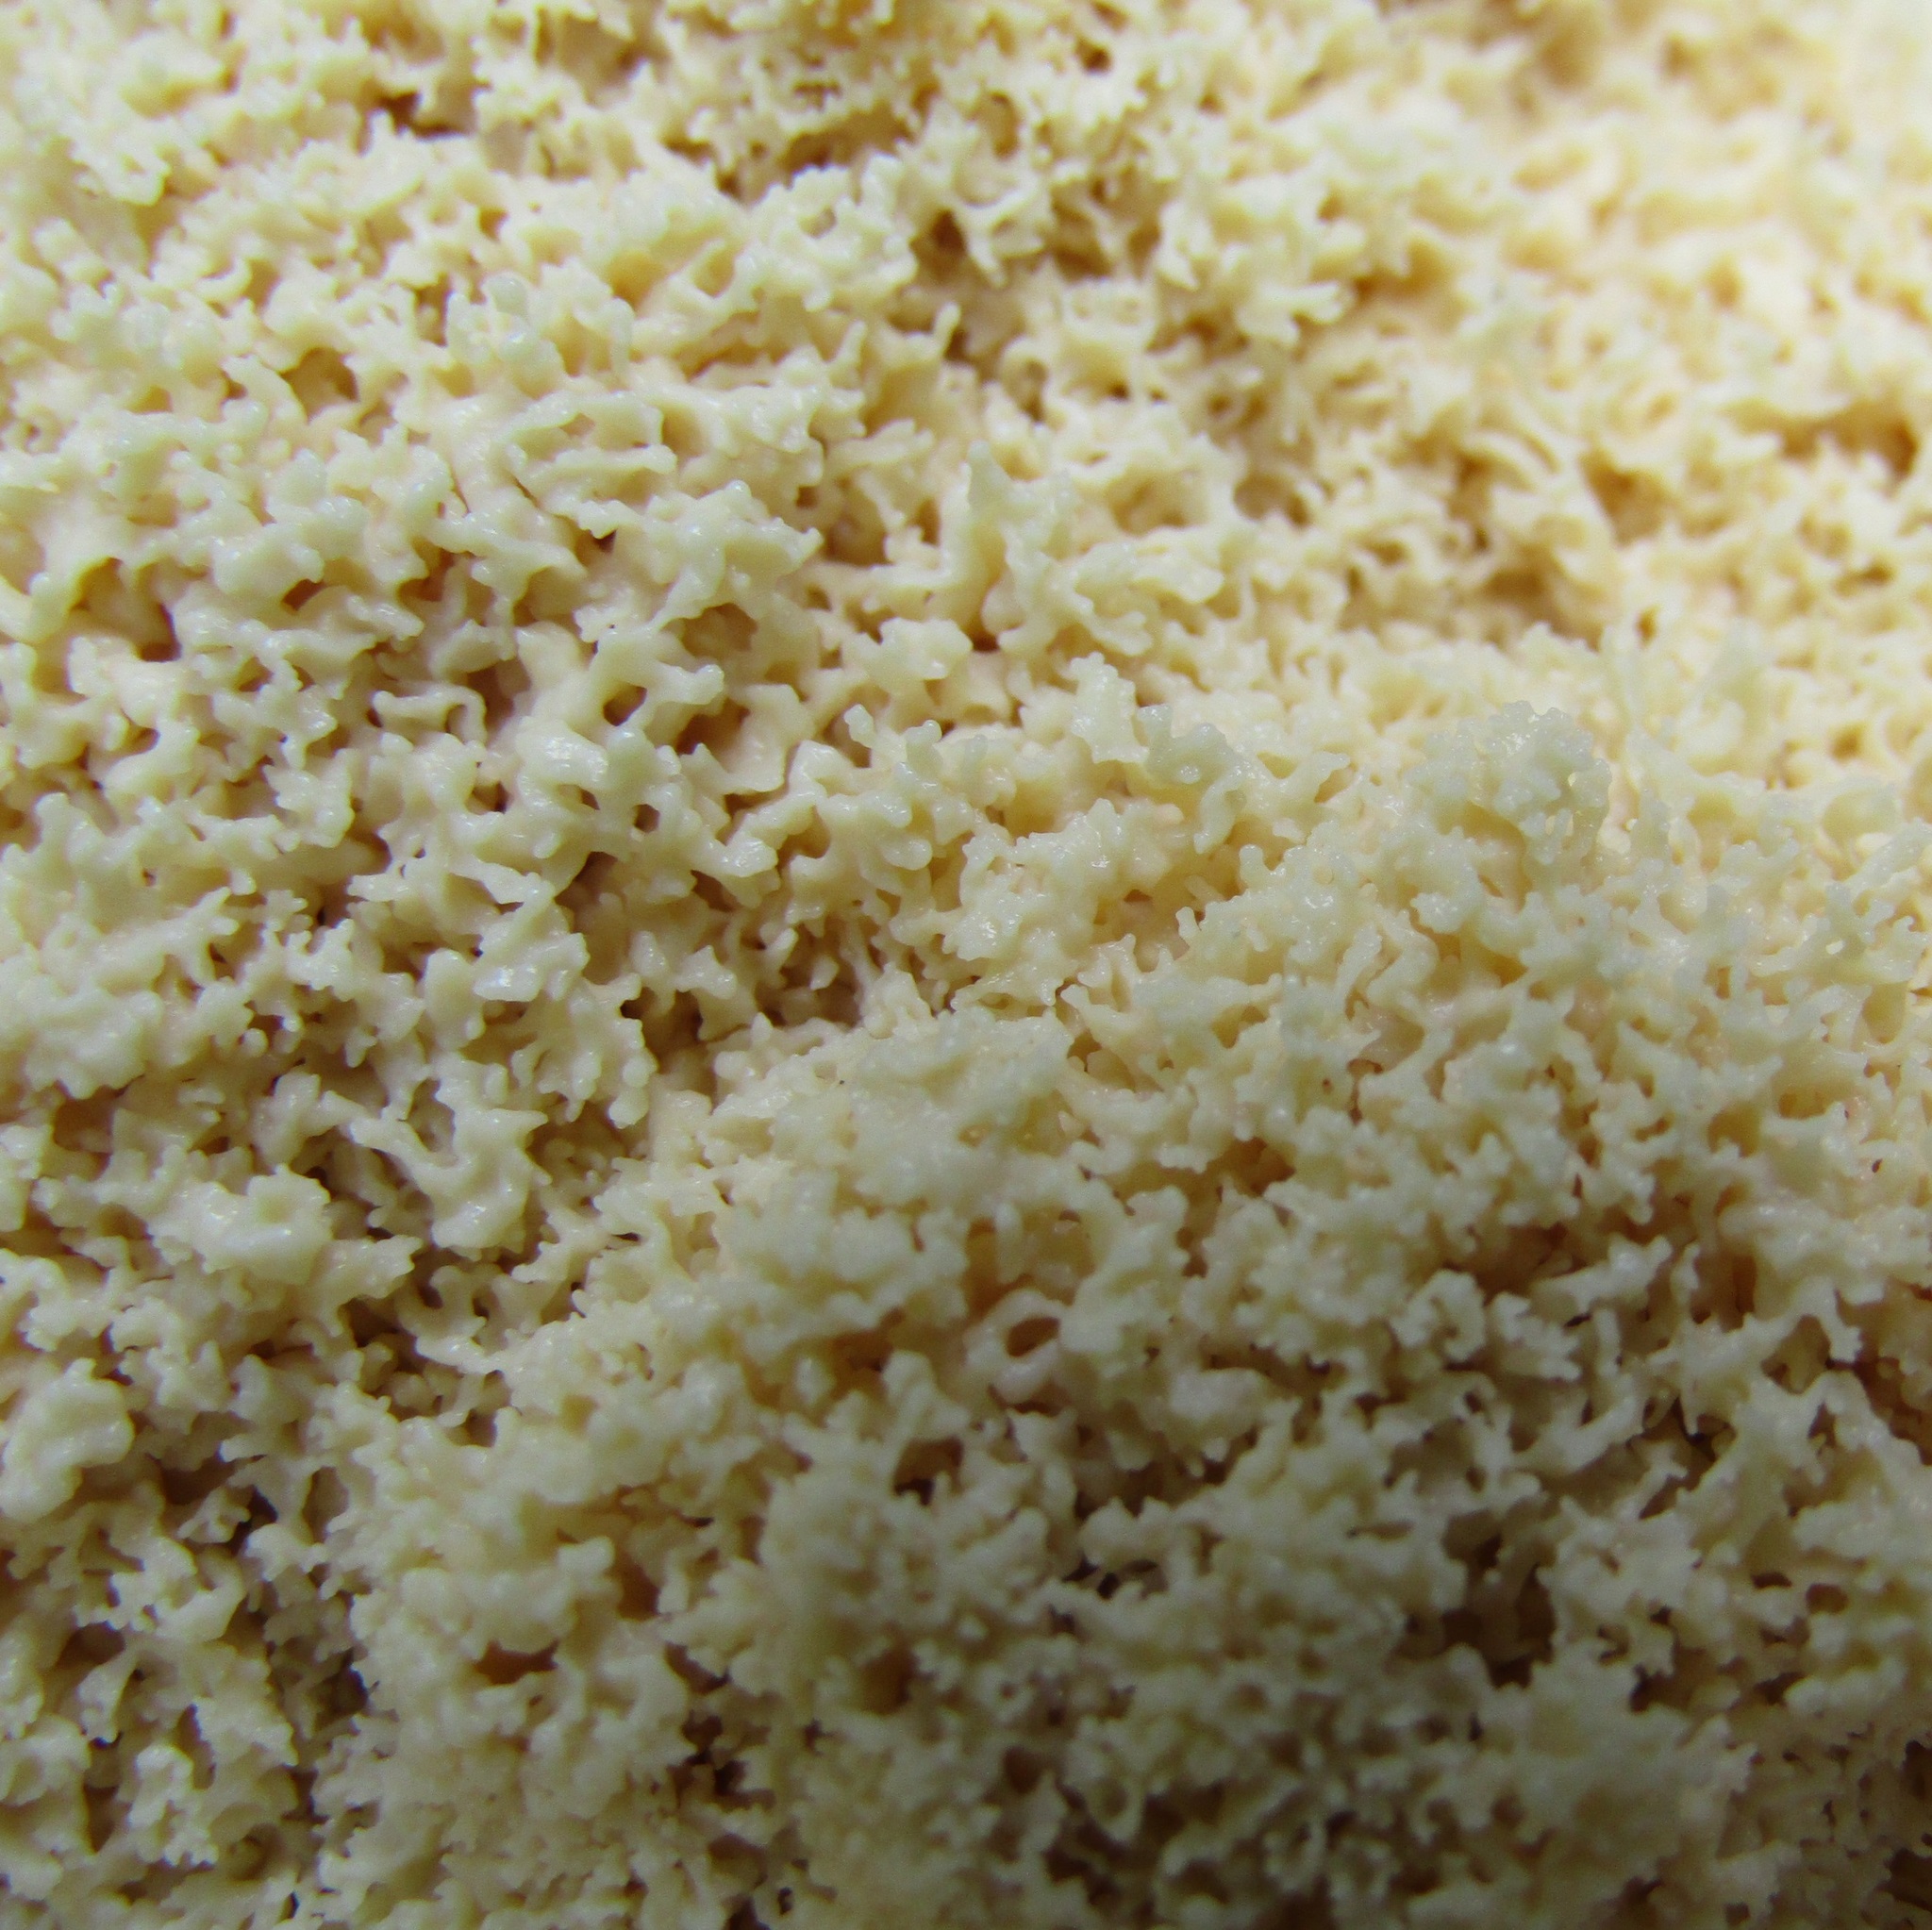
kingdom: Protozoa
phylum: Mycetozoa
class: Myxomycetes
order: Physarales
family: Physaraceae
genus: Didymium
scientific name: Didymium
